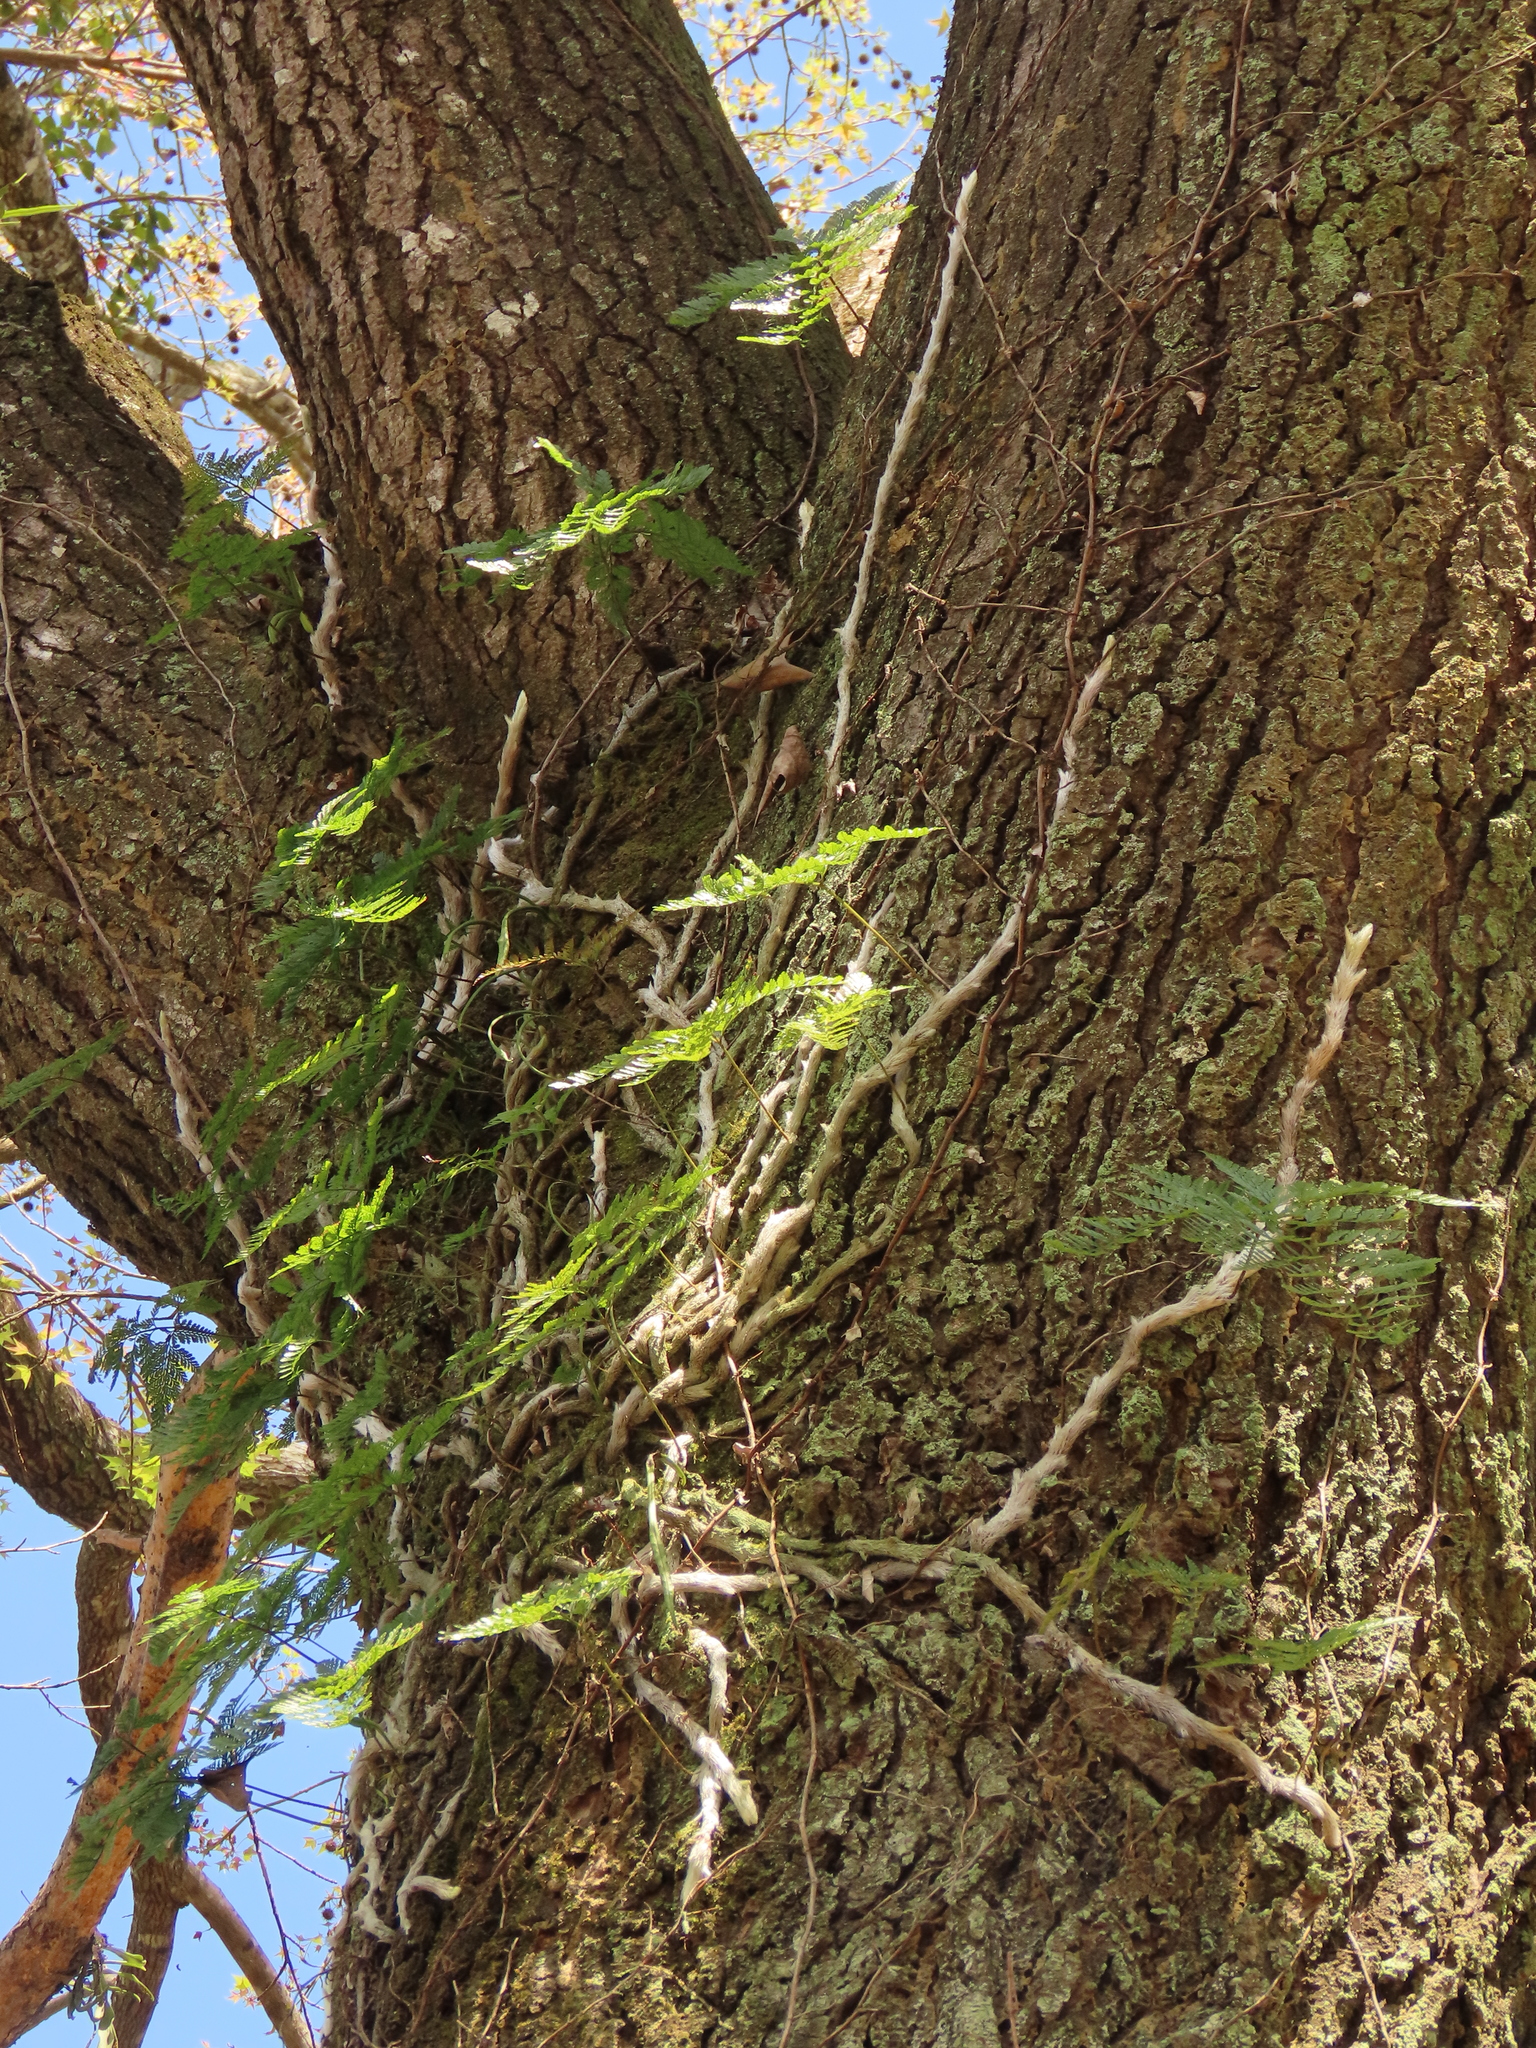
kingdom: Plantae
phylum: Tracheophyta
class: Polypodiopsida
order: Polypodiales
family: Davalliaceae
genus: Davallia
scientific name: Davallia griffithiana
